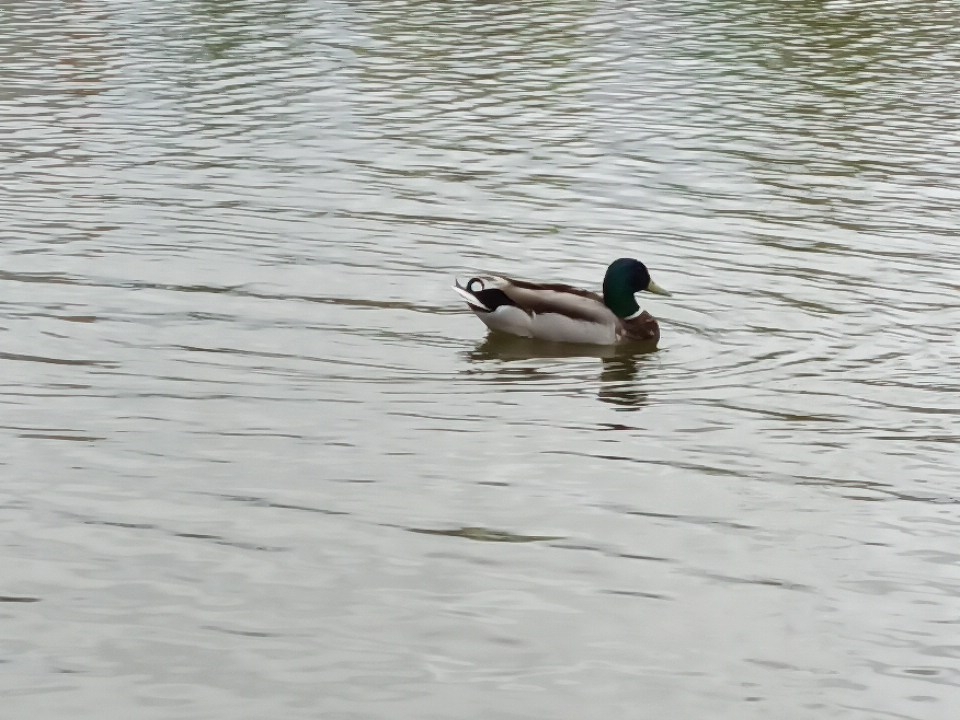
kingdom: Animalia
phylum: Chordata
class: Aves
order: Anseriformes
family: Anatidae
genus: Anas
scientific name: Anas platyrhynchos
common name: Mallard
